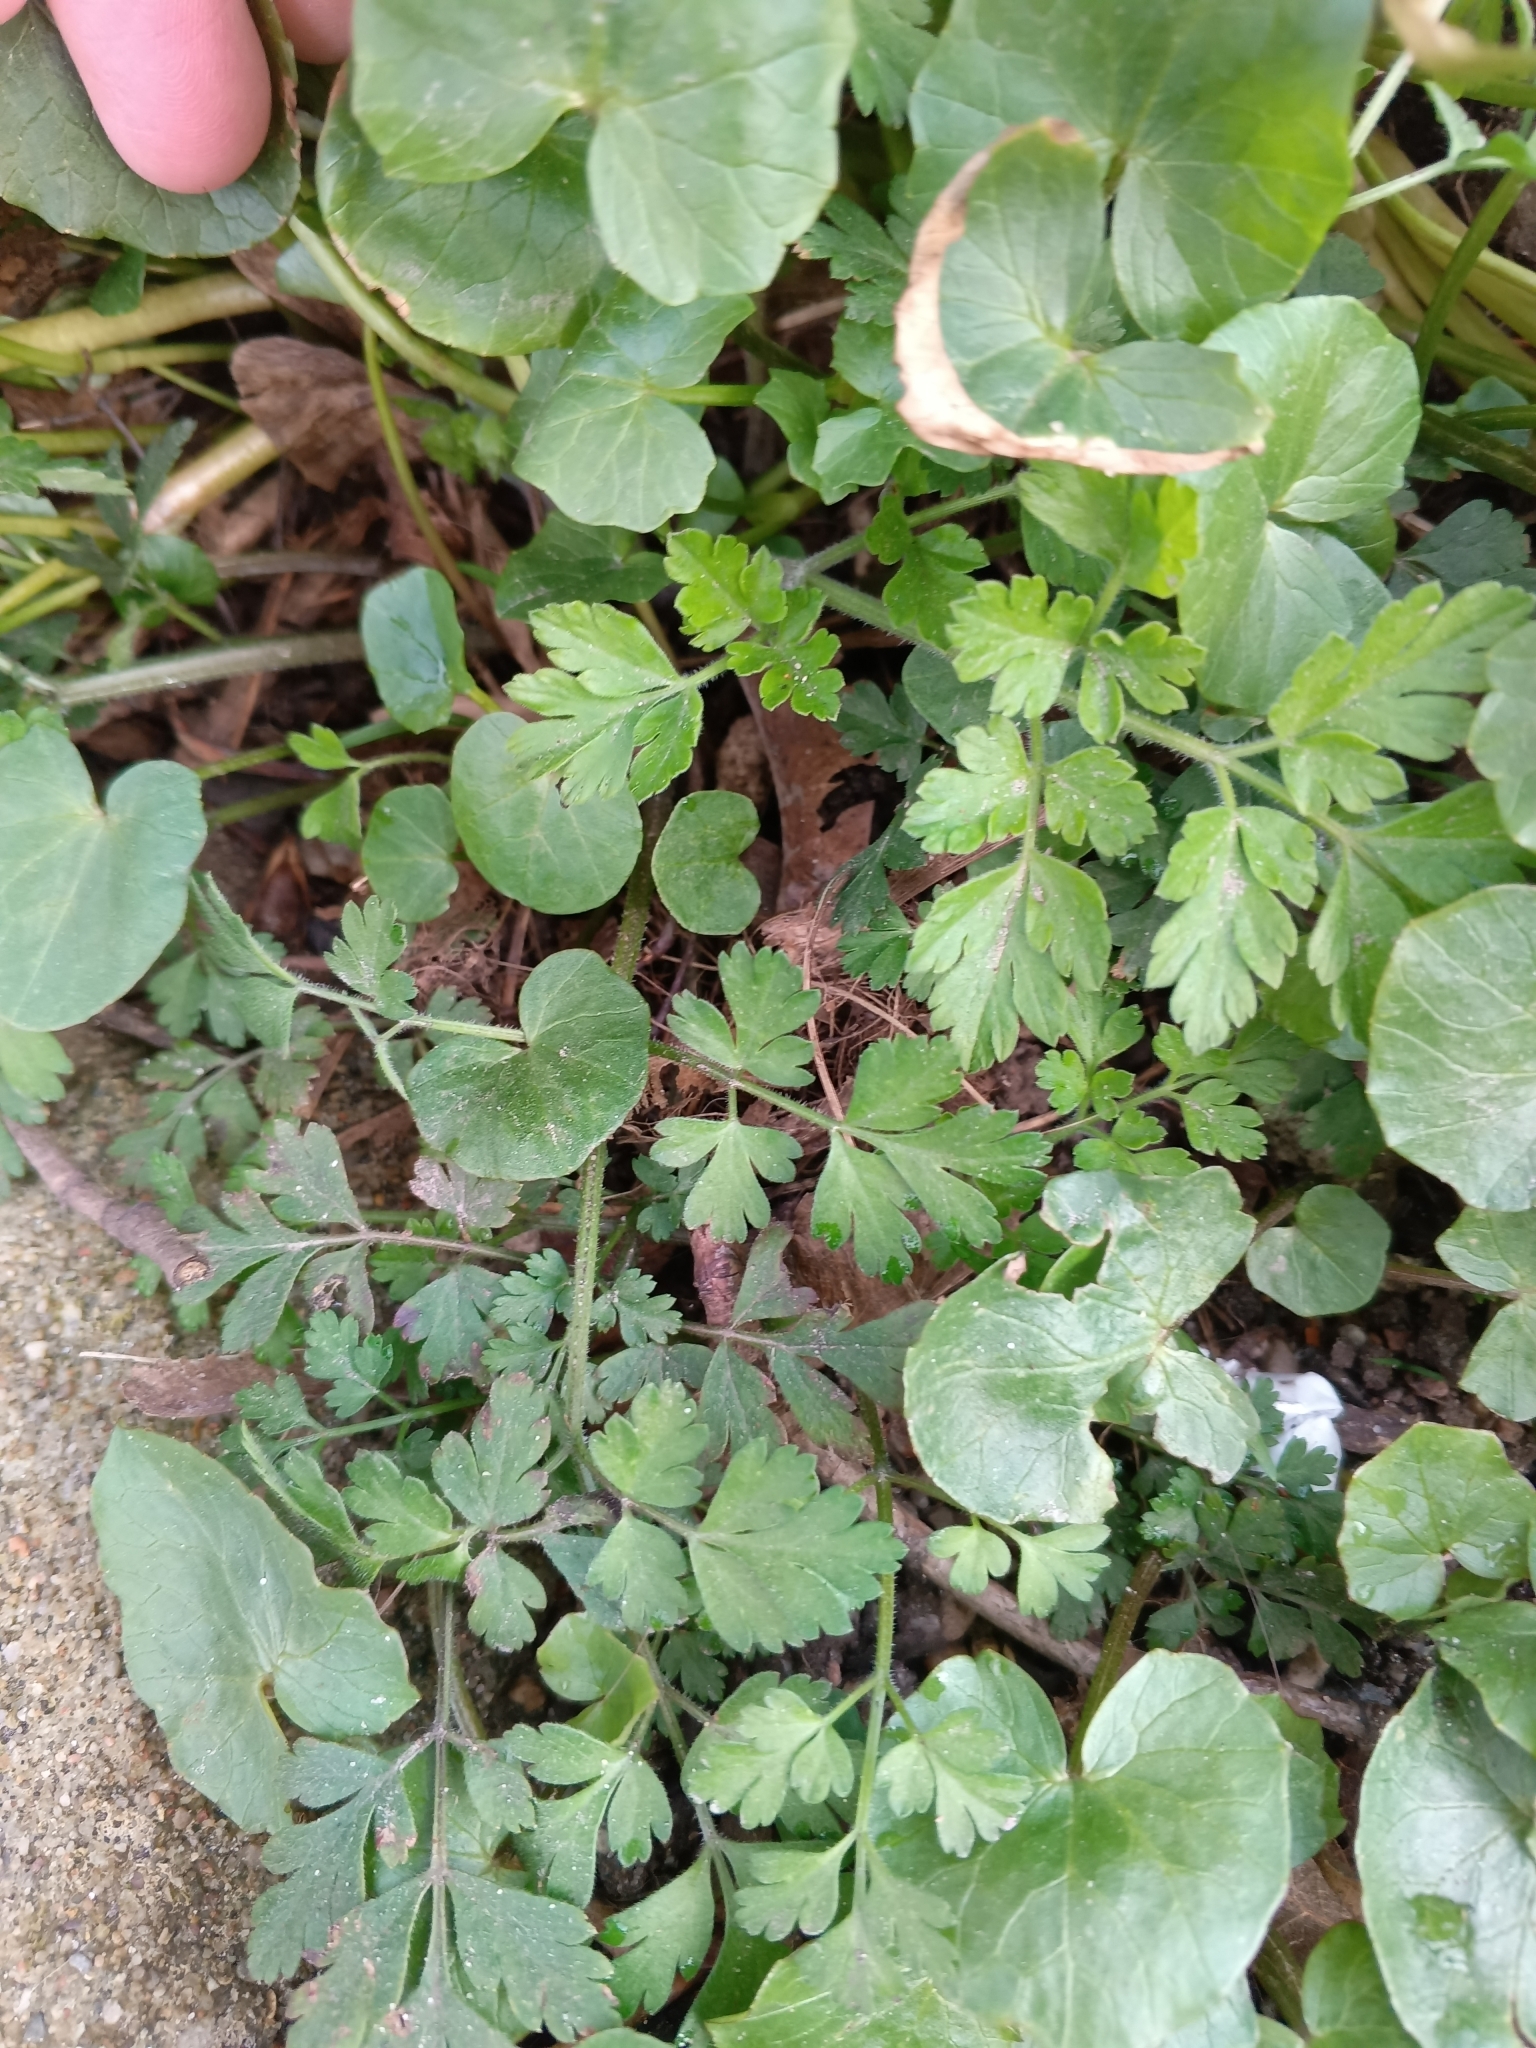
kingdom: Plantae
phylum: Tracheophyta
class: Magnoliopsida
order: Apiales
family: Apiaceae
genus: Chaerophyllum
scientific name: Chaerophyllum temulum
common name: Rough chervil
